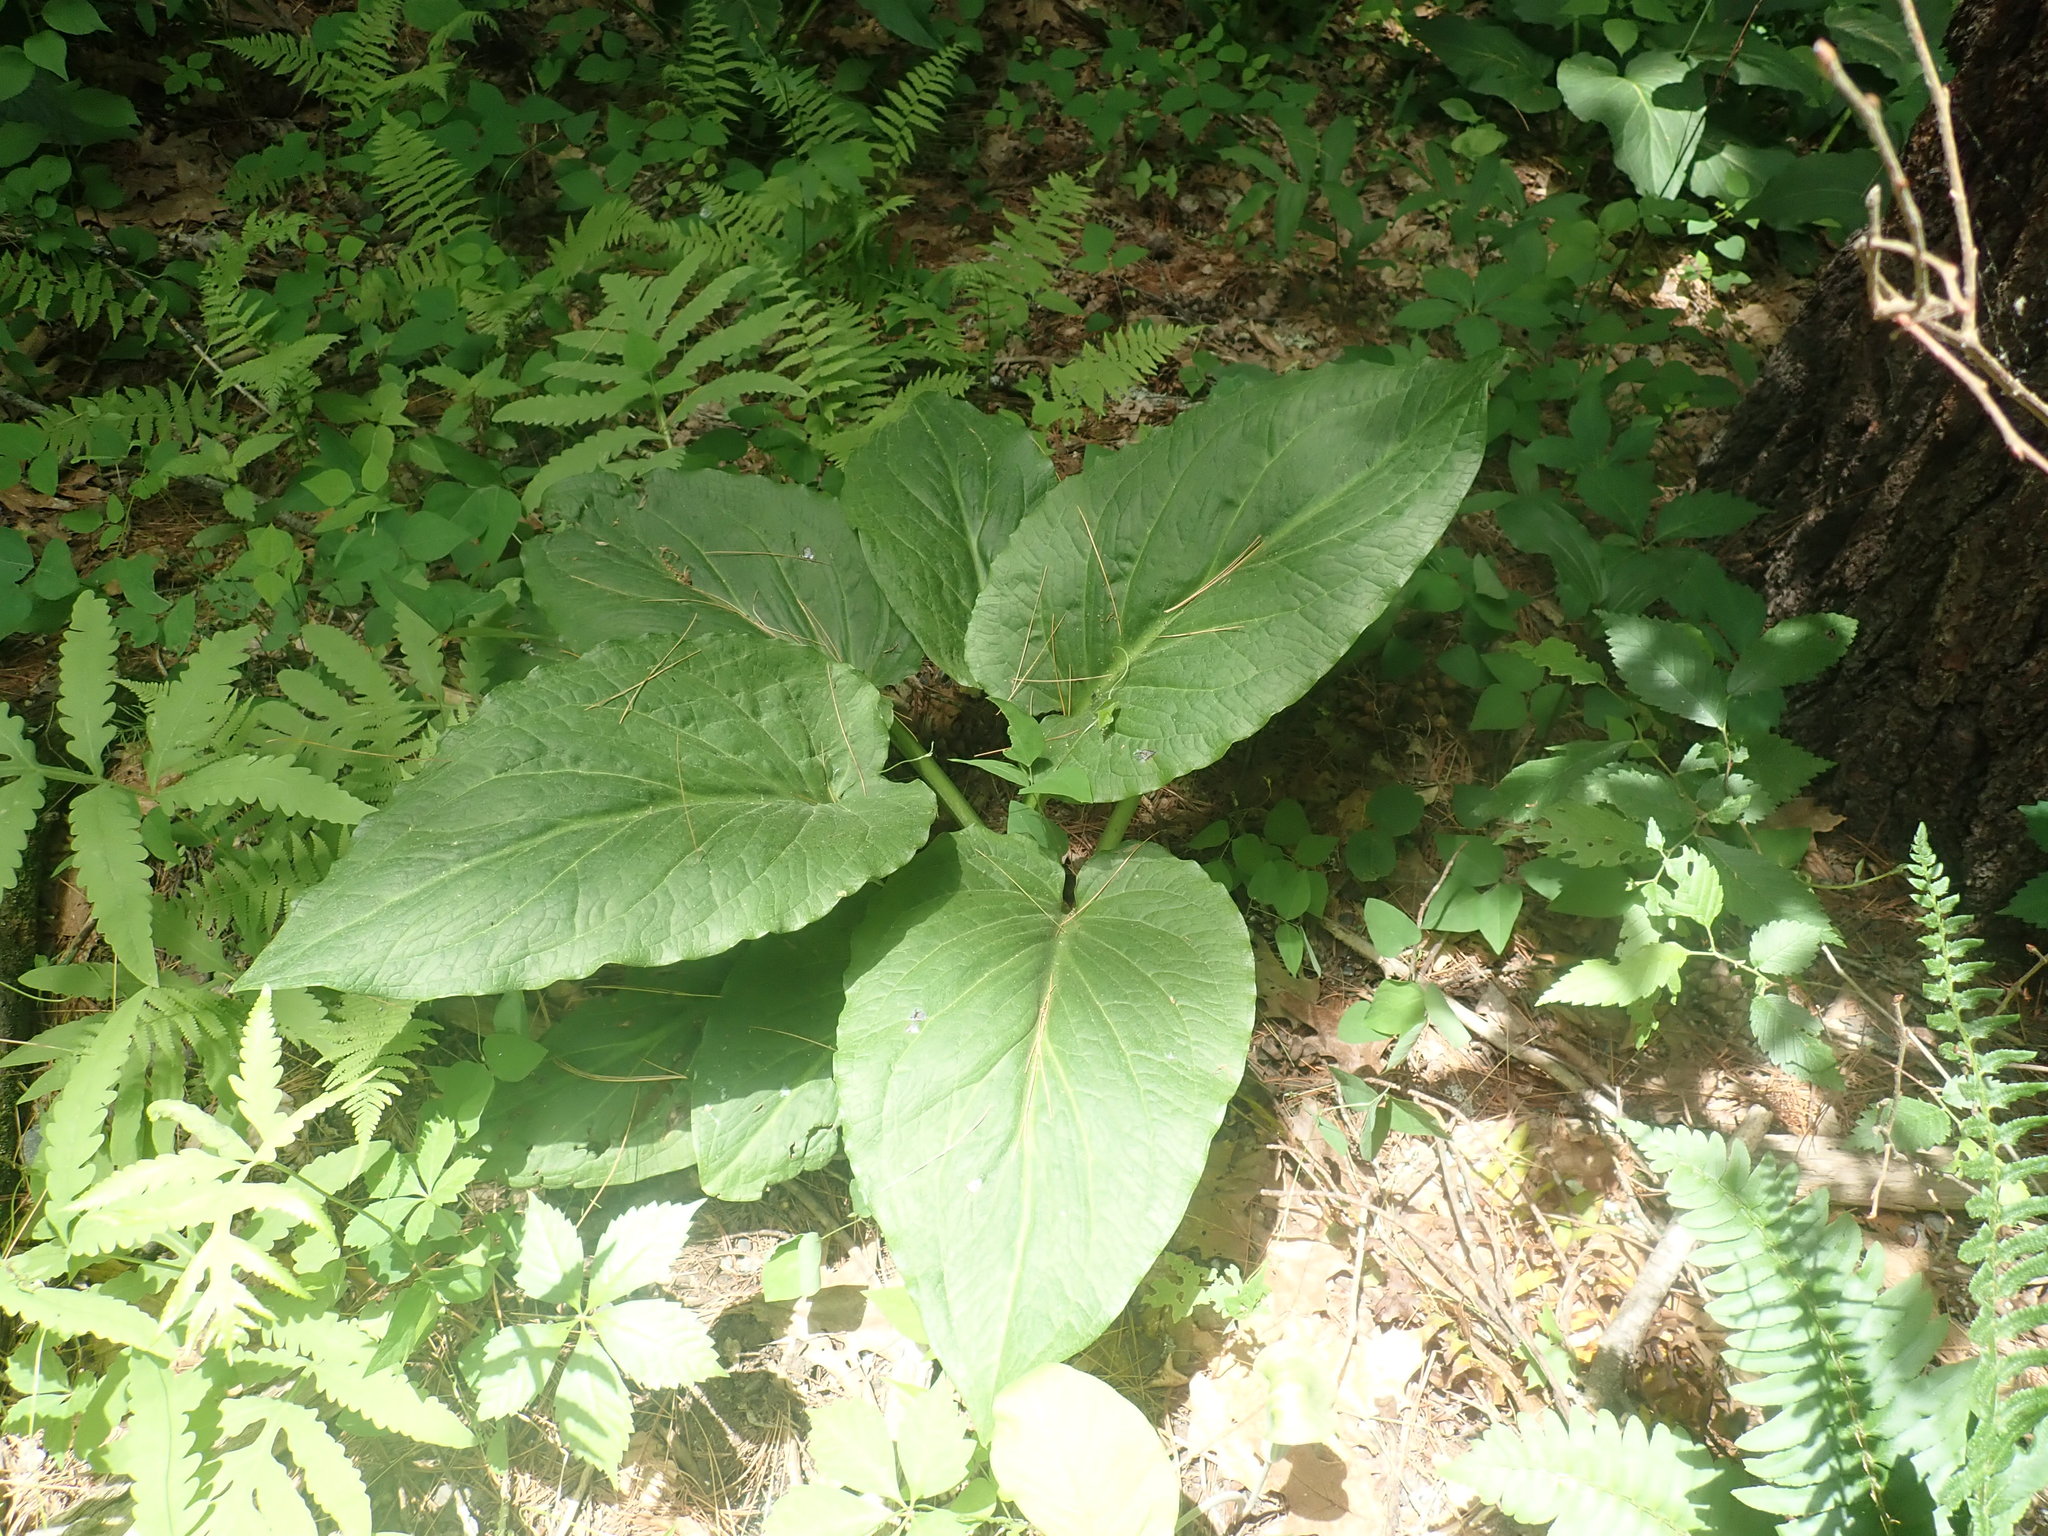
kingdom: Plantae
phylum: Tracheophyta
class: Liliopsida
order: Alismatales
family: Araceae
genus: Symplocarpus
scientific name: Symplocarpus foetidus
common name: Eastern skunk cabbage
